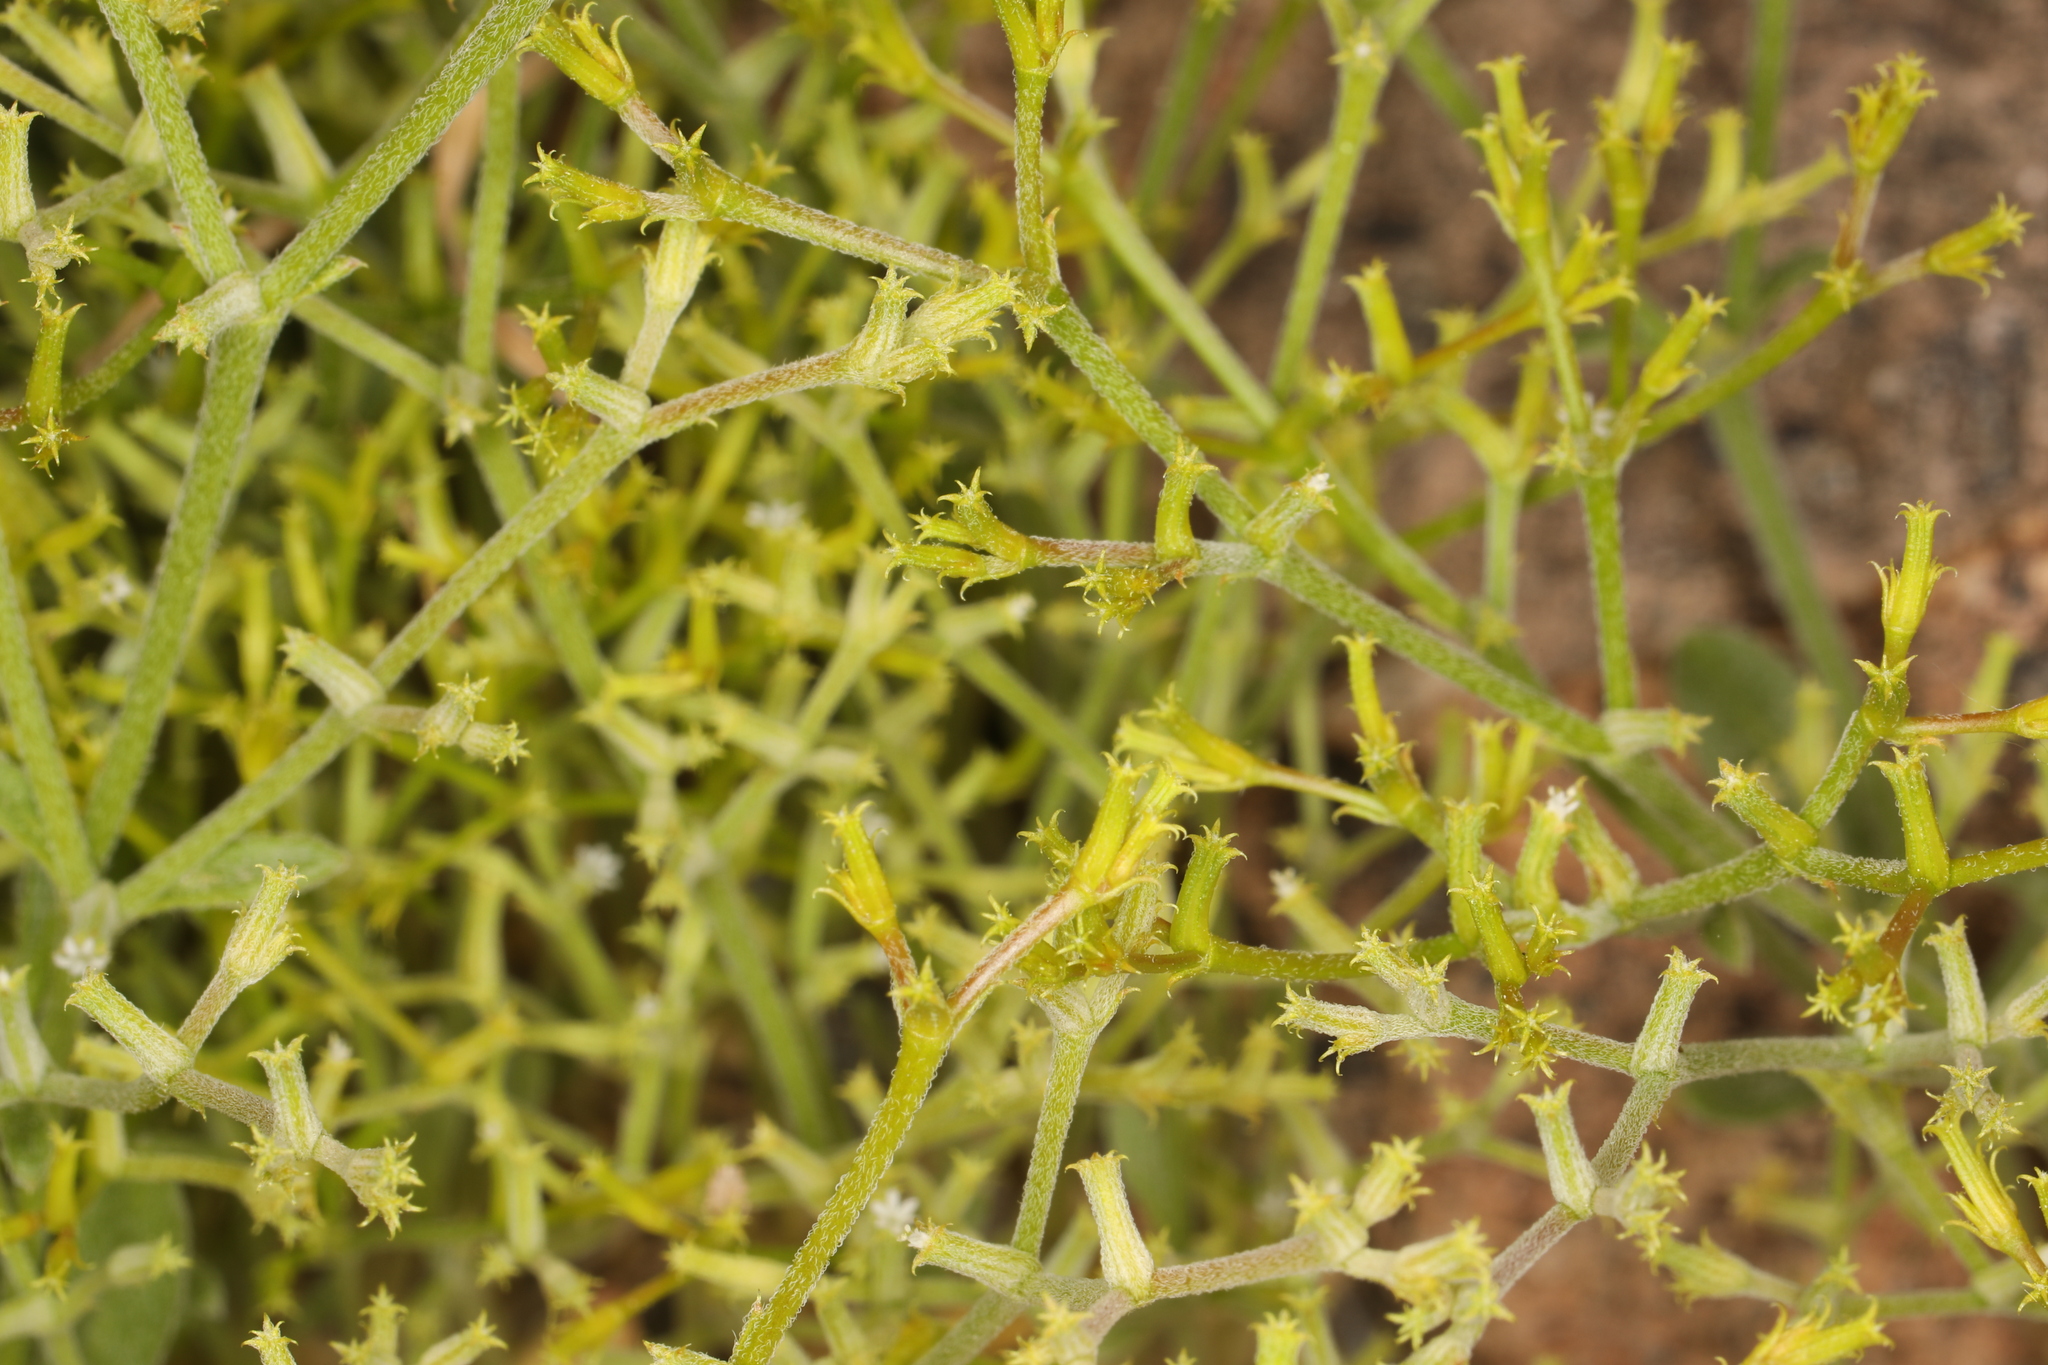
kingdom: Plantae
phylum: Tracheophyta
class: Magnoliopsida
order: Caryophyllales
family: Polygonaceae
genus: Chorizanthe
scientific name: Chorizanthe brevicornu
